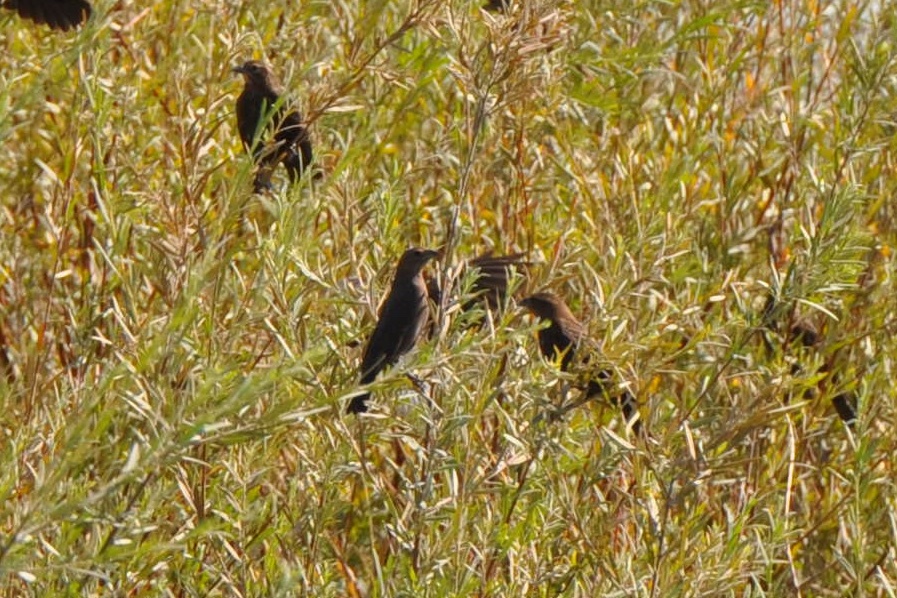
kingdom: Animalia
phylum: Chordata
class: Aves
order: Passeriformes
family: Icteridae
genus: Molothrus
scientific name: Molothrus ater
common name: Brown-headed cowbird
